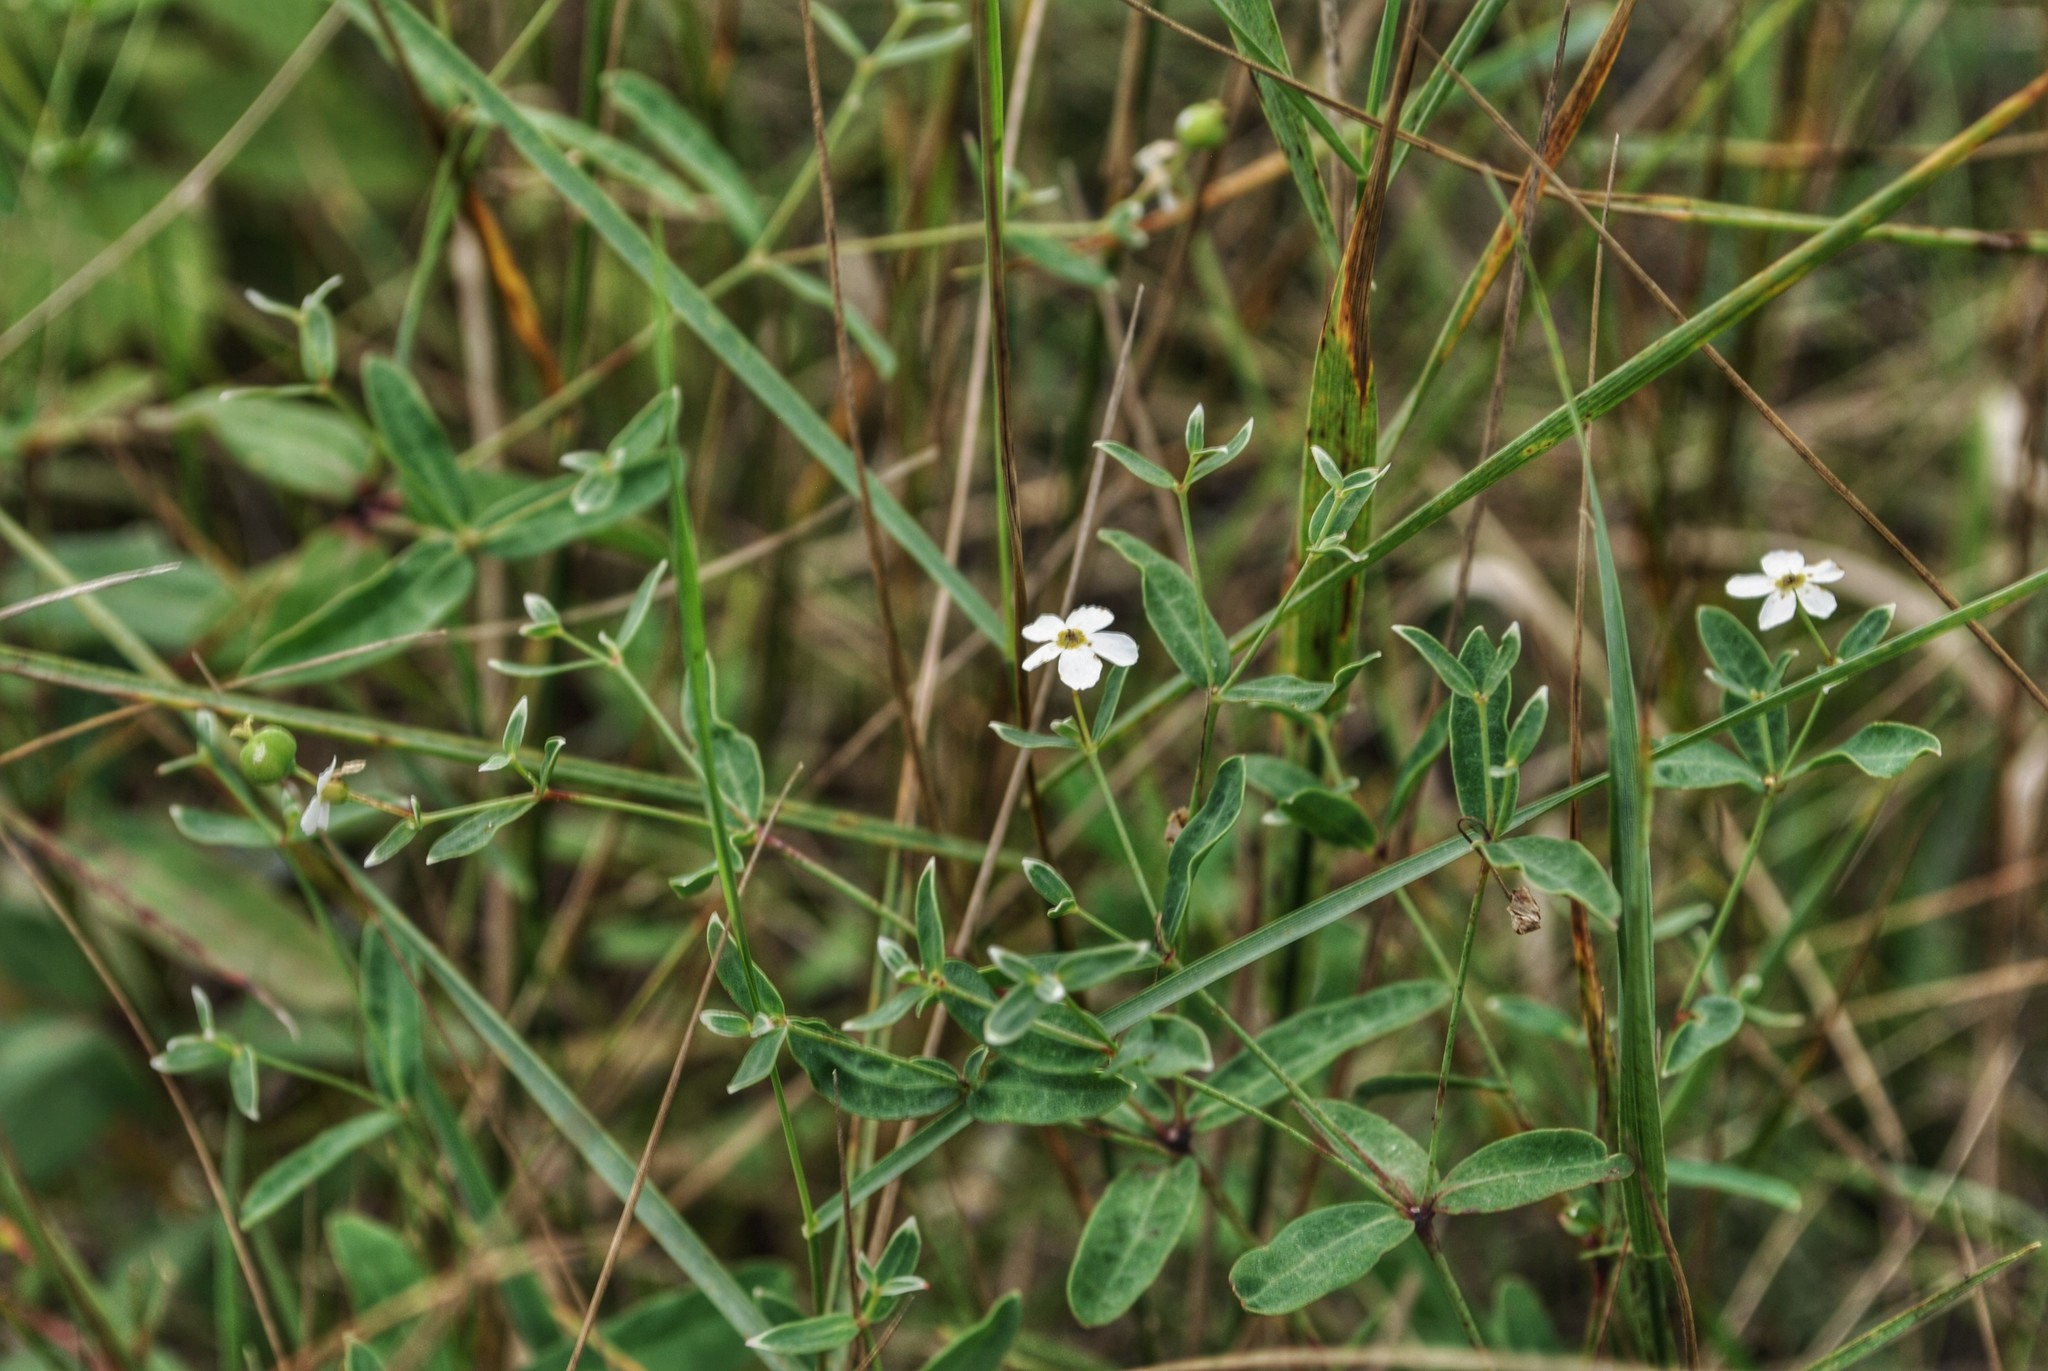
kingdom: Plantae
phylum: Tracheophyta
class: Magnoliopsida
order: Malpighiales
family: Euphorbiaceae
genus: Euphorbia
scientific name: Euphorbia corollata
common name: Flowering spurge
